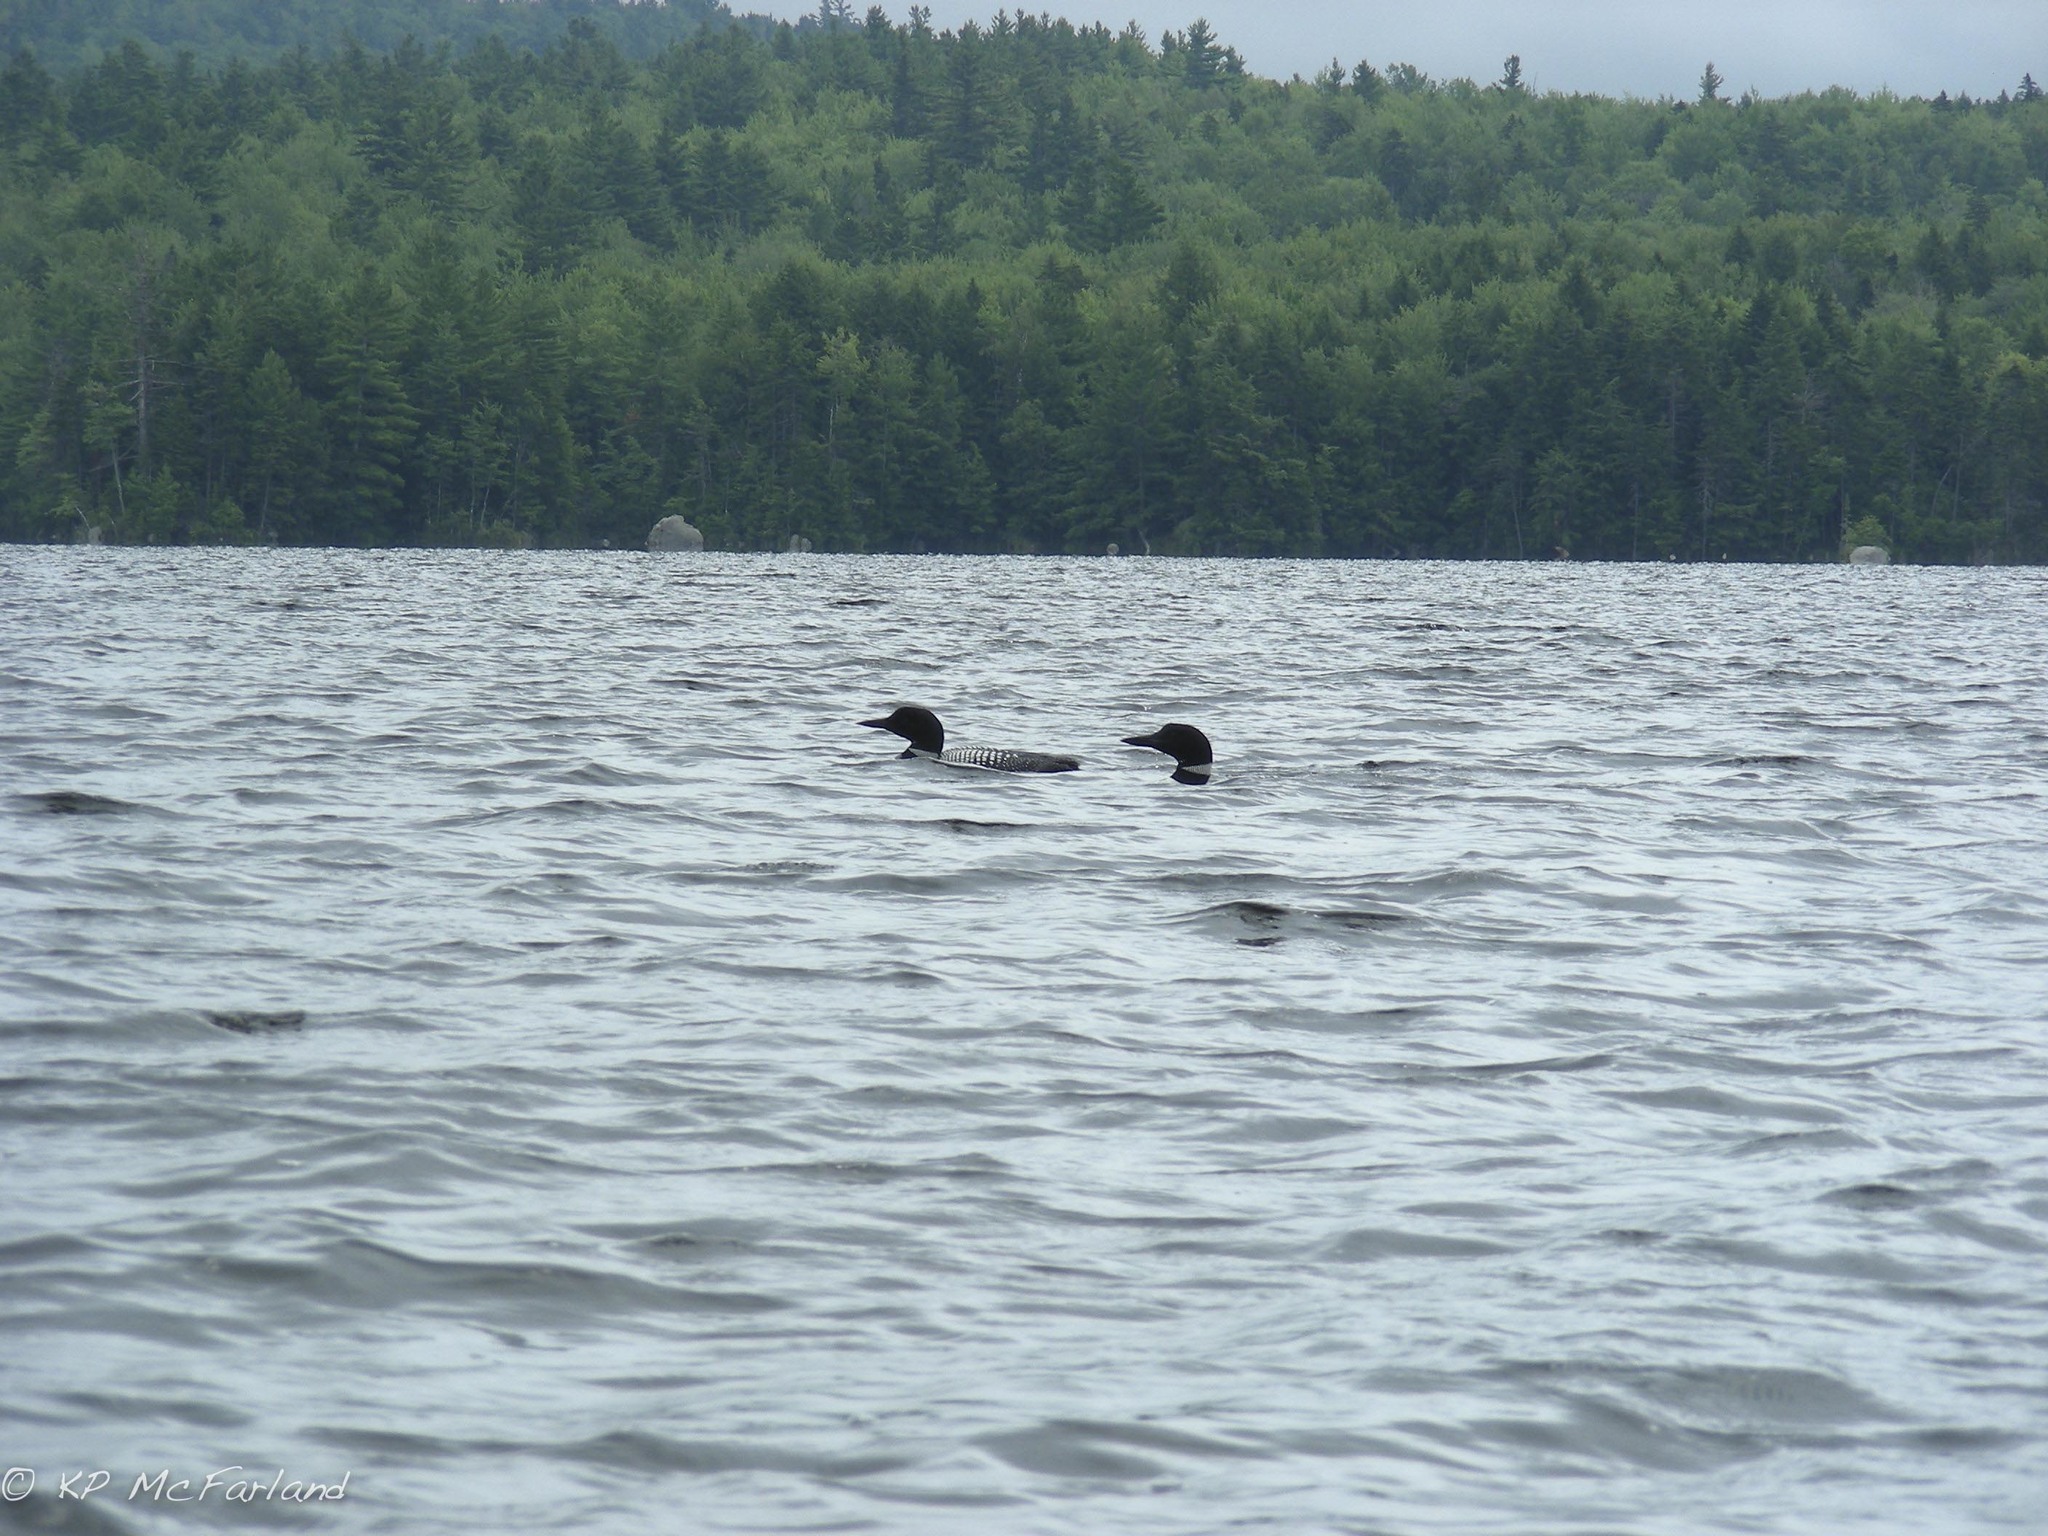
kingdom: Animalia
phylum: Chordata
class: Aves
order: Gaviiformes
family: Gaviidae
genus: Gavia
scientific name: Gavia immer
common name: Common loon
